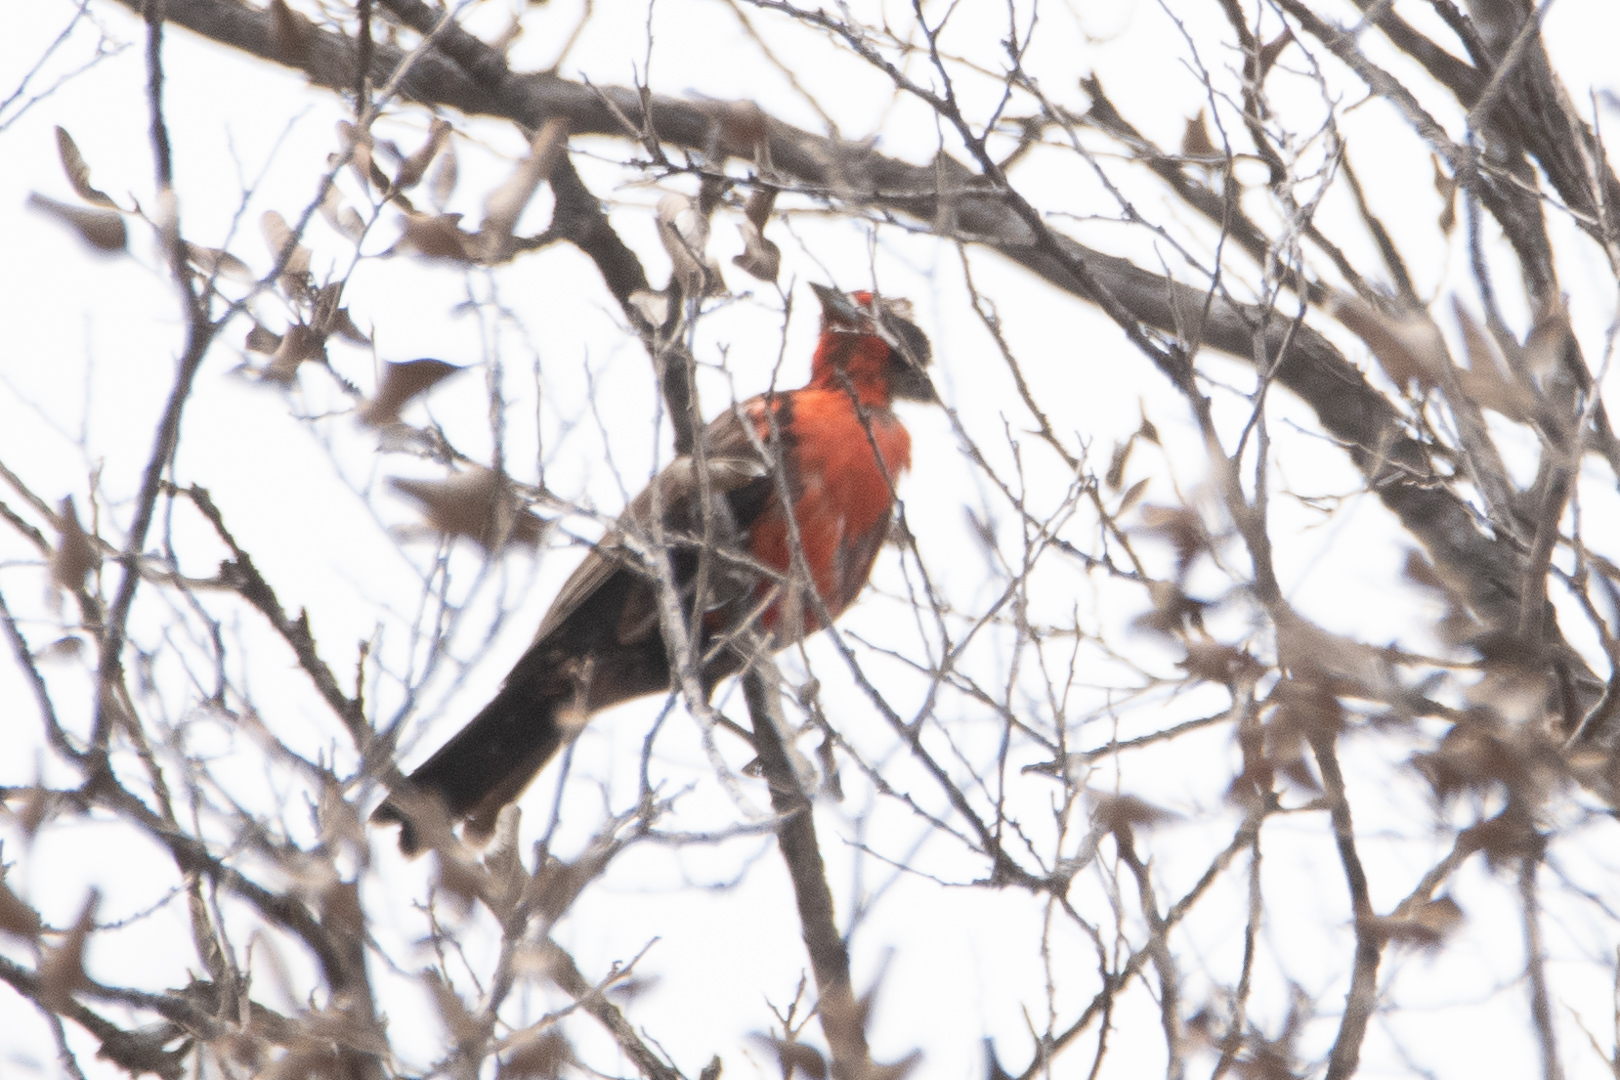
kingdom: Animalia
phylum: Chordata
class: Aves
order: Passeriformes
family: Icteridae
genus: Sturnella
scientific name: Sturnella loyca
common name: Long-tailed meadowlark
